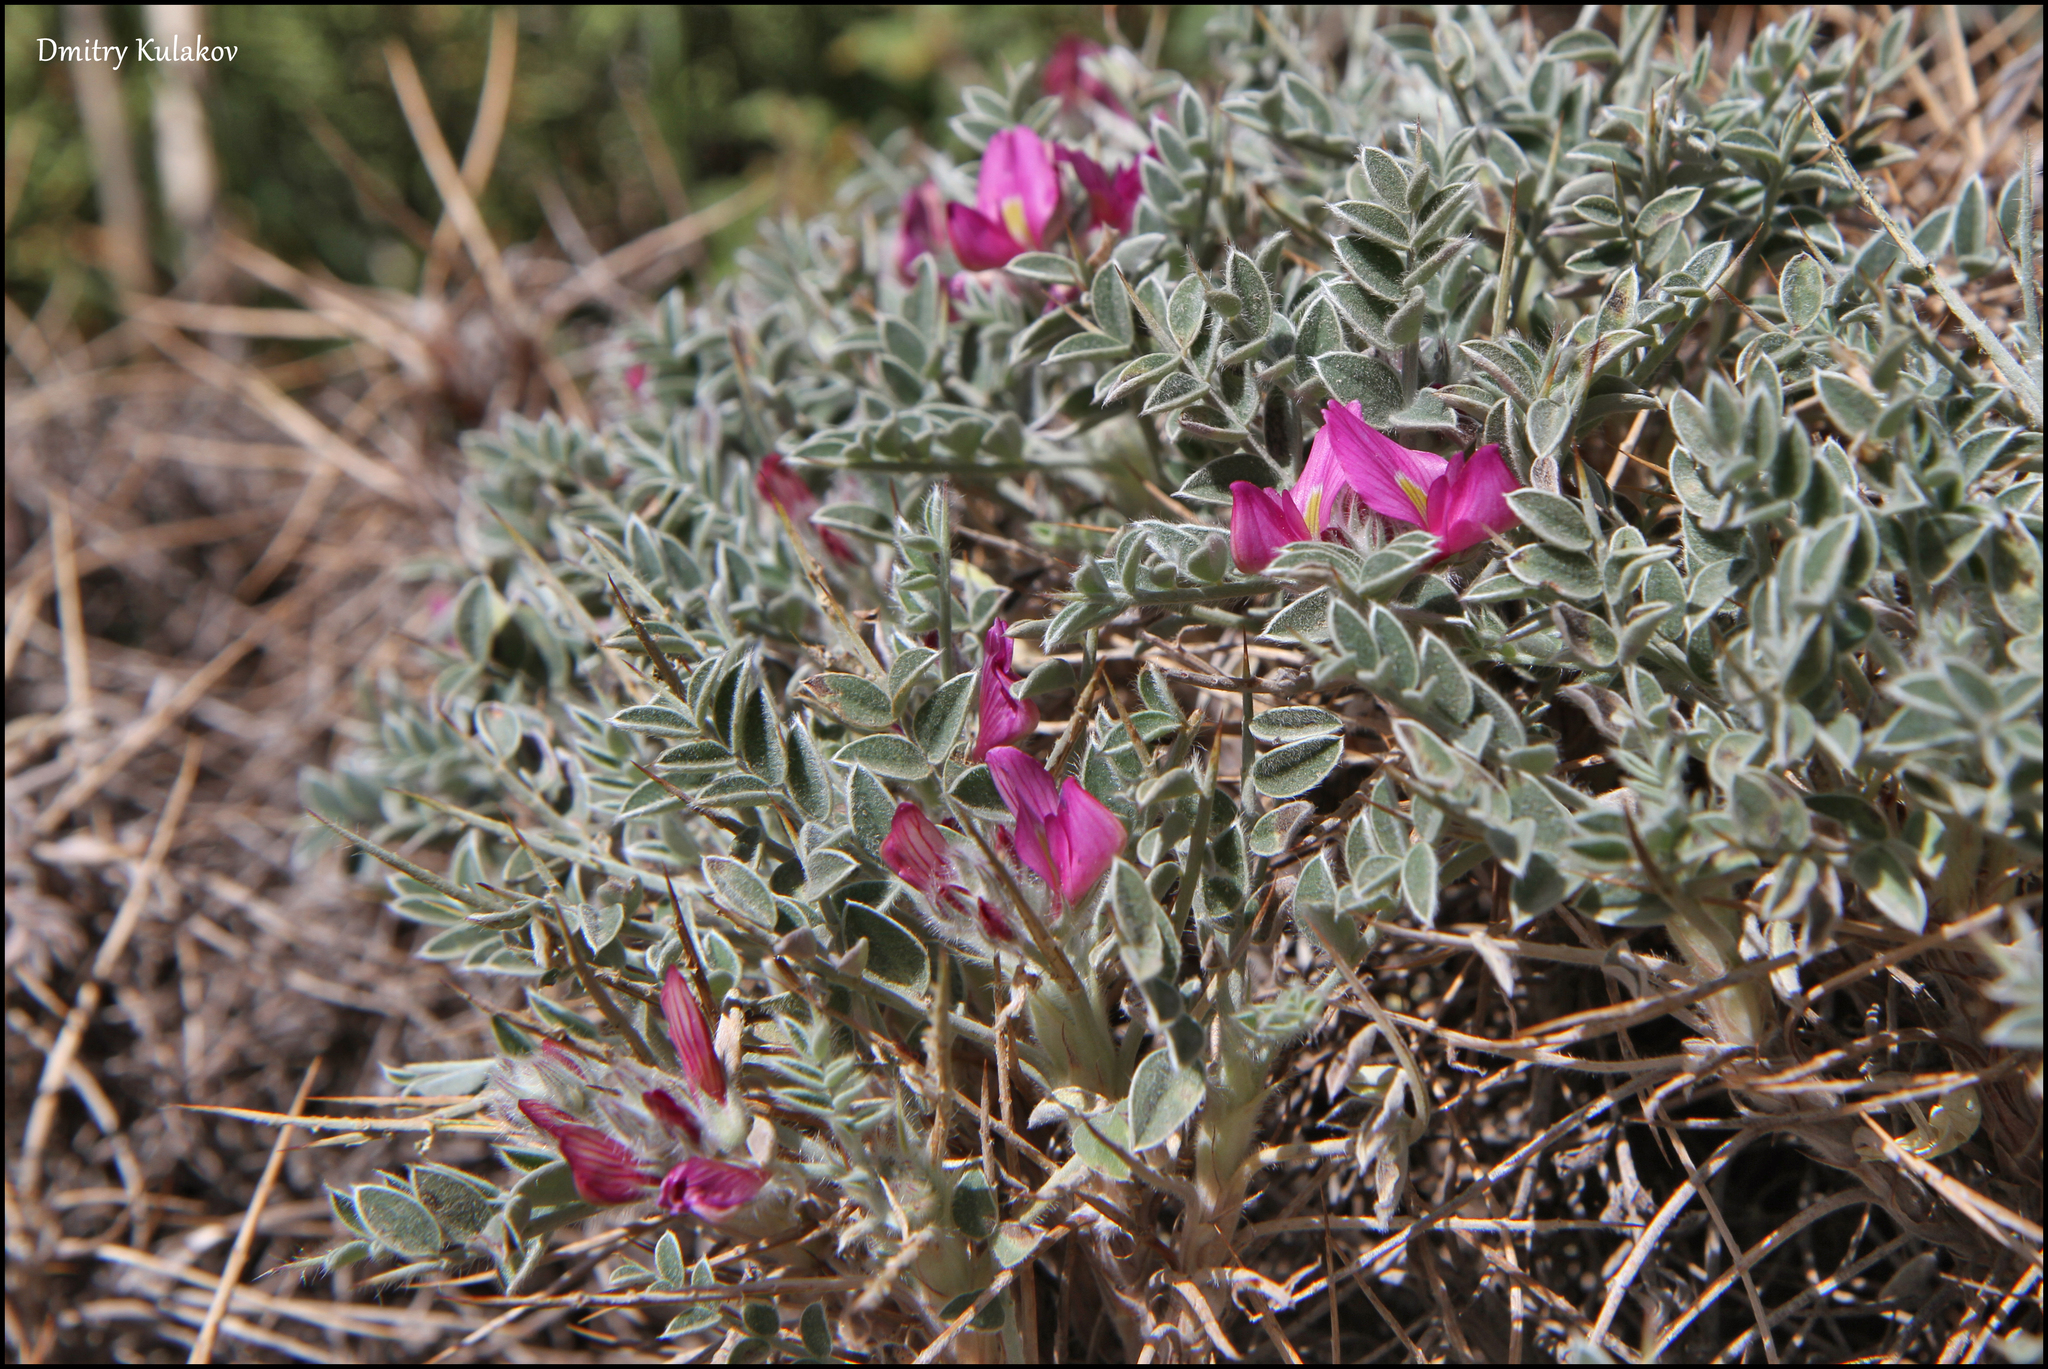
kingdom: Plantae
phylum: Tracheophyta
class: Magnoliopsida
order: Fabales
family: Fabaceae
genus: Onobrychis
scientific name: Onobrychis echidna
